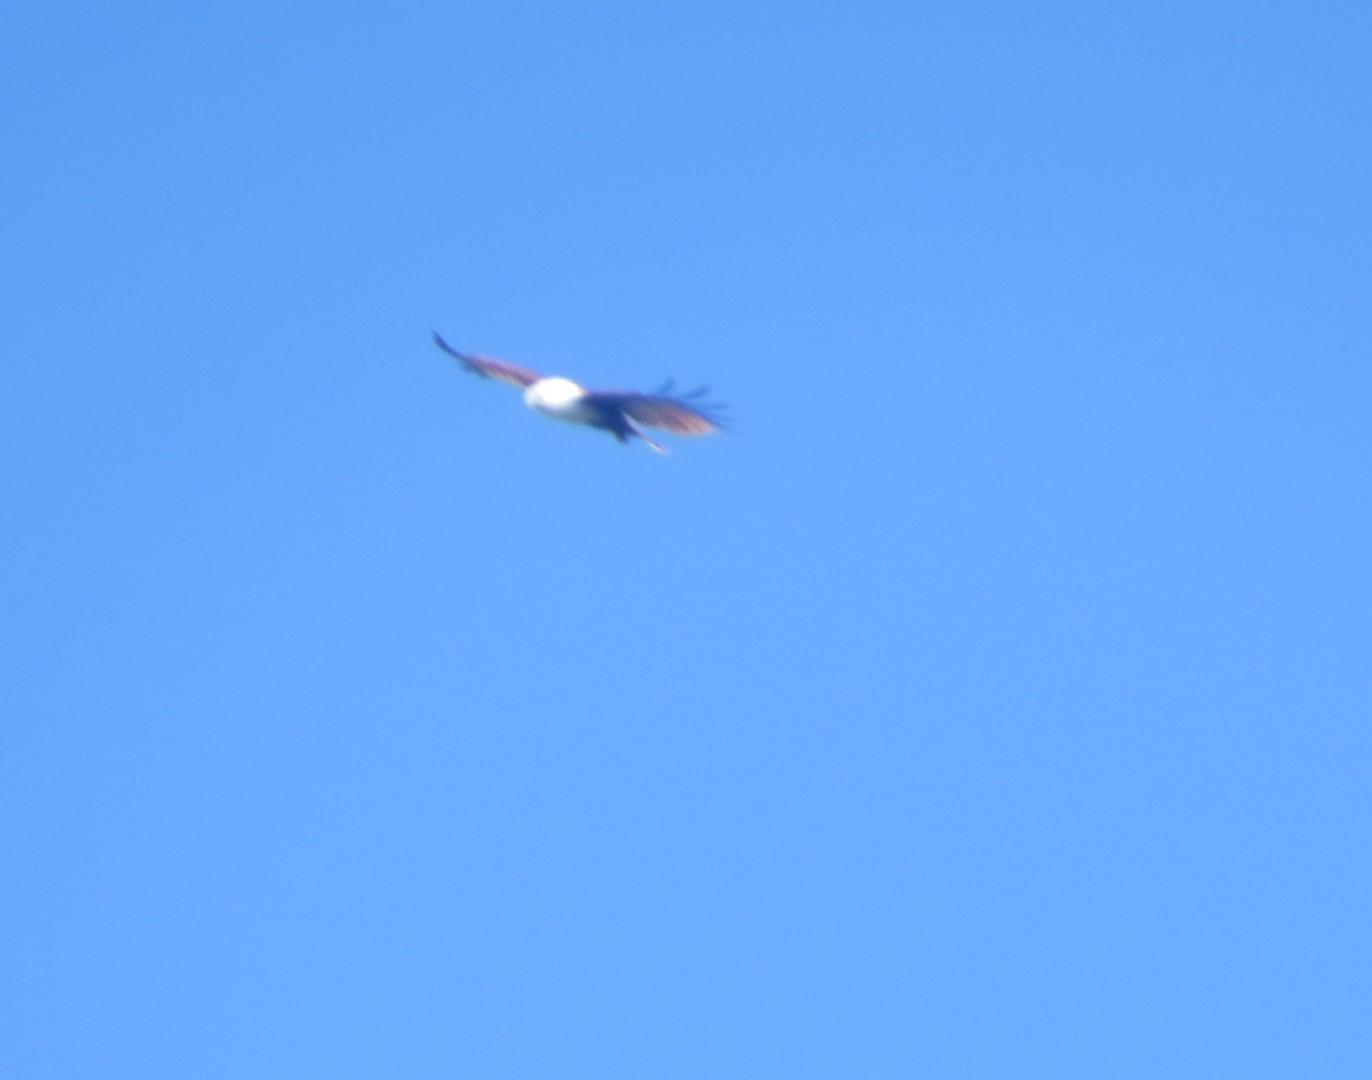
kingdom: Animalia
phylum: Chordata
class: Aves
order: Accipitriformes
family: Accipitridae
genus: Haliastur
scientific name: Haliastur indus
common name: Brahminy kite
